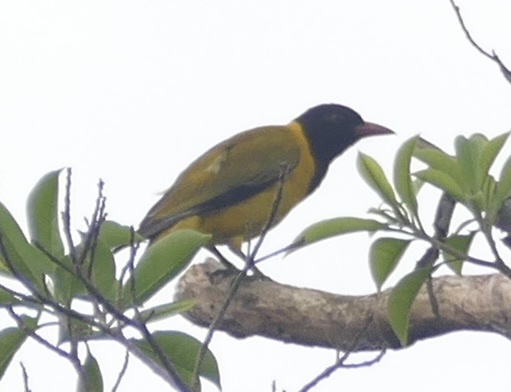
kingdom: Animalia
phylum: Chordata
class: Aves
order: Passeriformes
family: Oriolidae
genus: Oriolus
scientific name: Oriolus nigripennis
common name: Black-winged oriole
